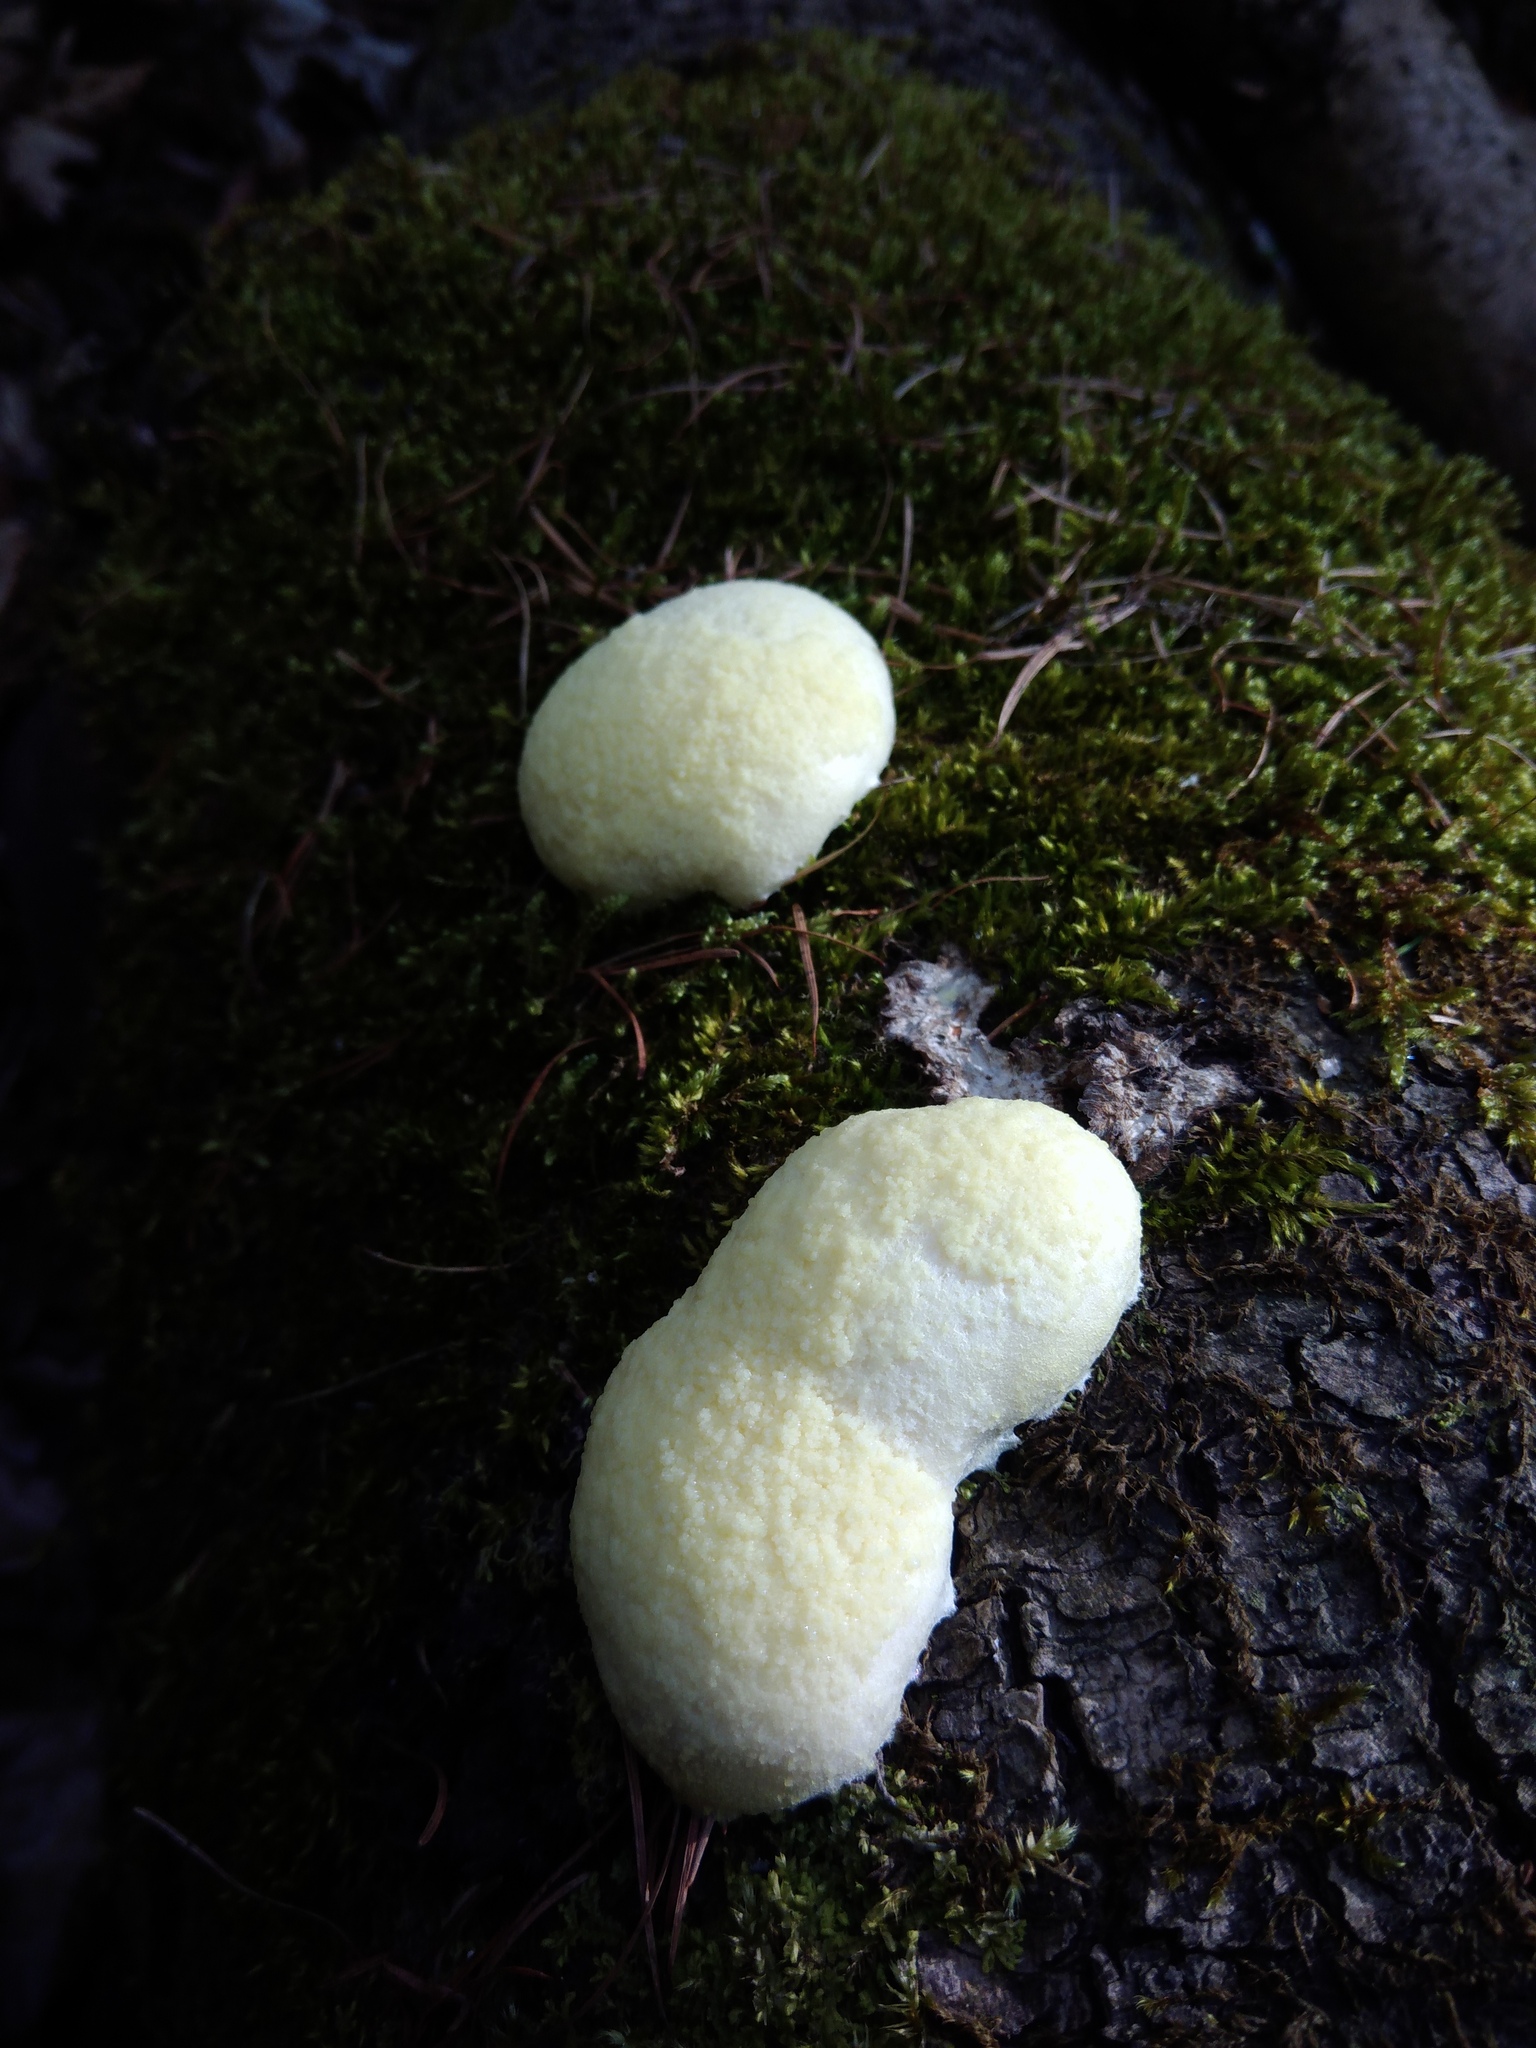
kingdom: Protozoa
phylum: Mycetozoa
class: Myxomycetes
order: Cribrariales
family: Tubiferaceae
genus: Reticularia
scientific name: Reticularia lycoperdon
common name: False puffball
